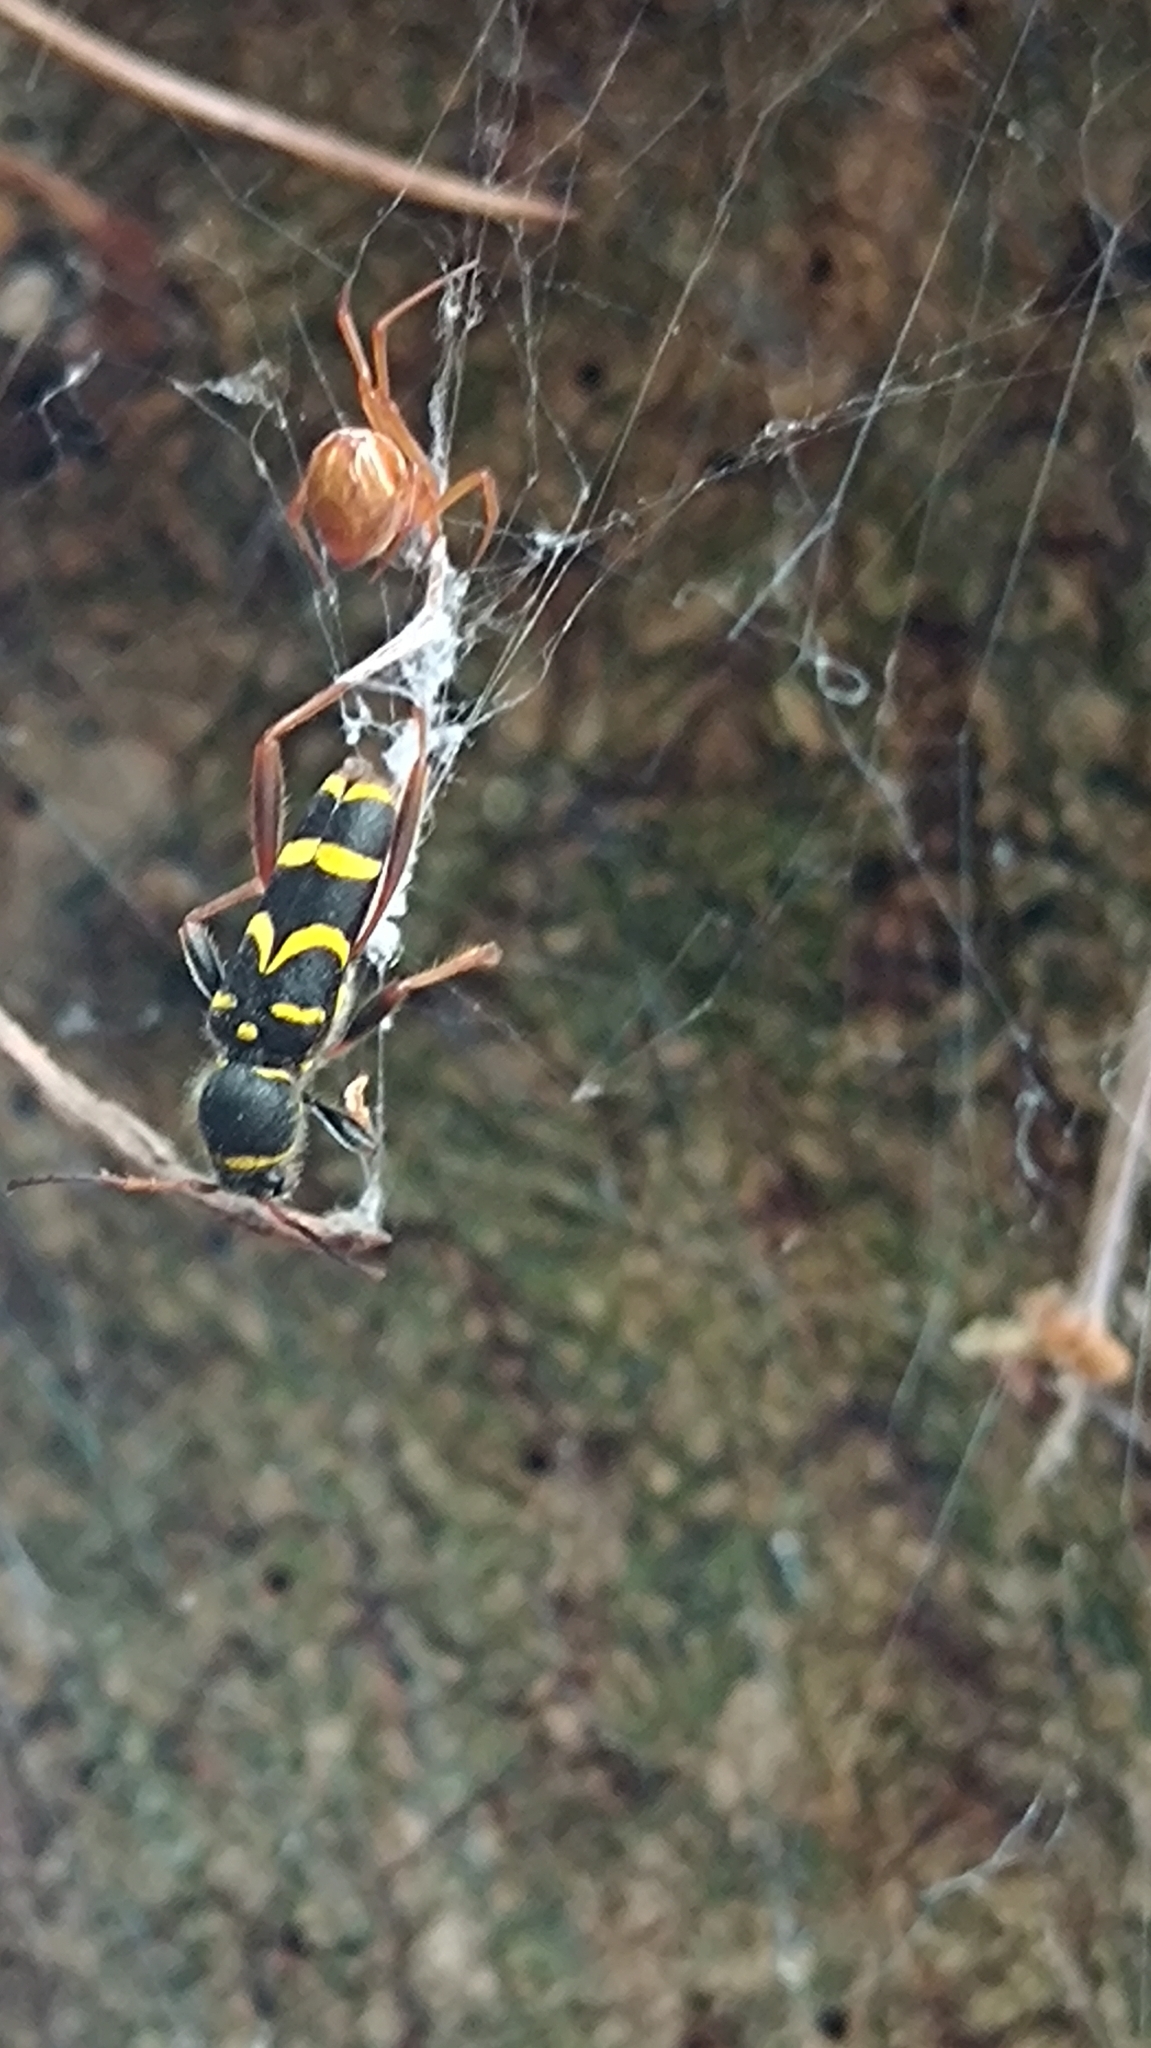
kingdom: Animalia
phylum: Arthropoda
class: Insecta
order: Coleoptera
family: Cerambycidae
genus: Clytus
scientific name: Clytus arietis
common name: Wasp beetle
